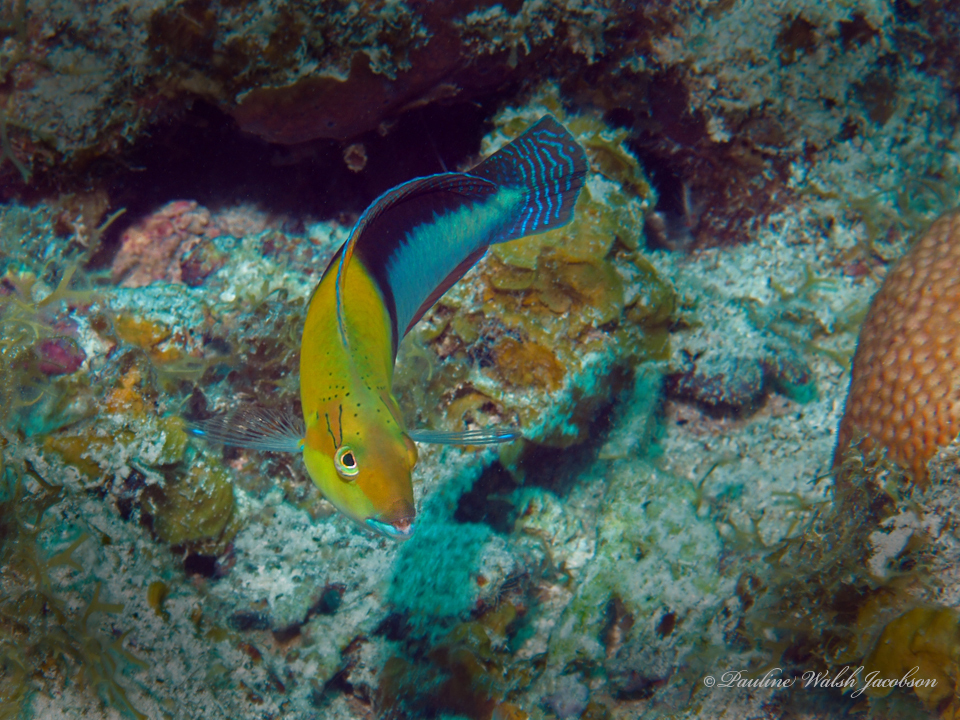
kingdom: Animalia
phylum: Chordata
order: Perciformes
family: Labridae
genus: Halichoeres
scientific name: Halichoeres garnoti
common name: Yellowhead wrasse
